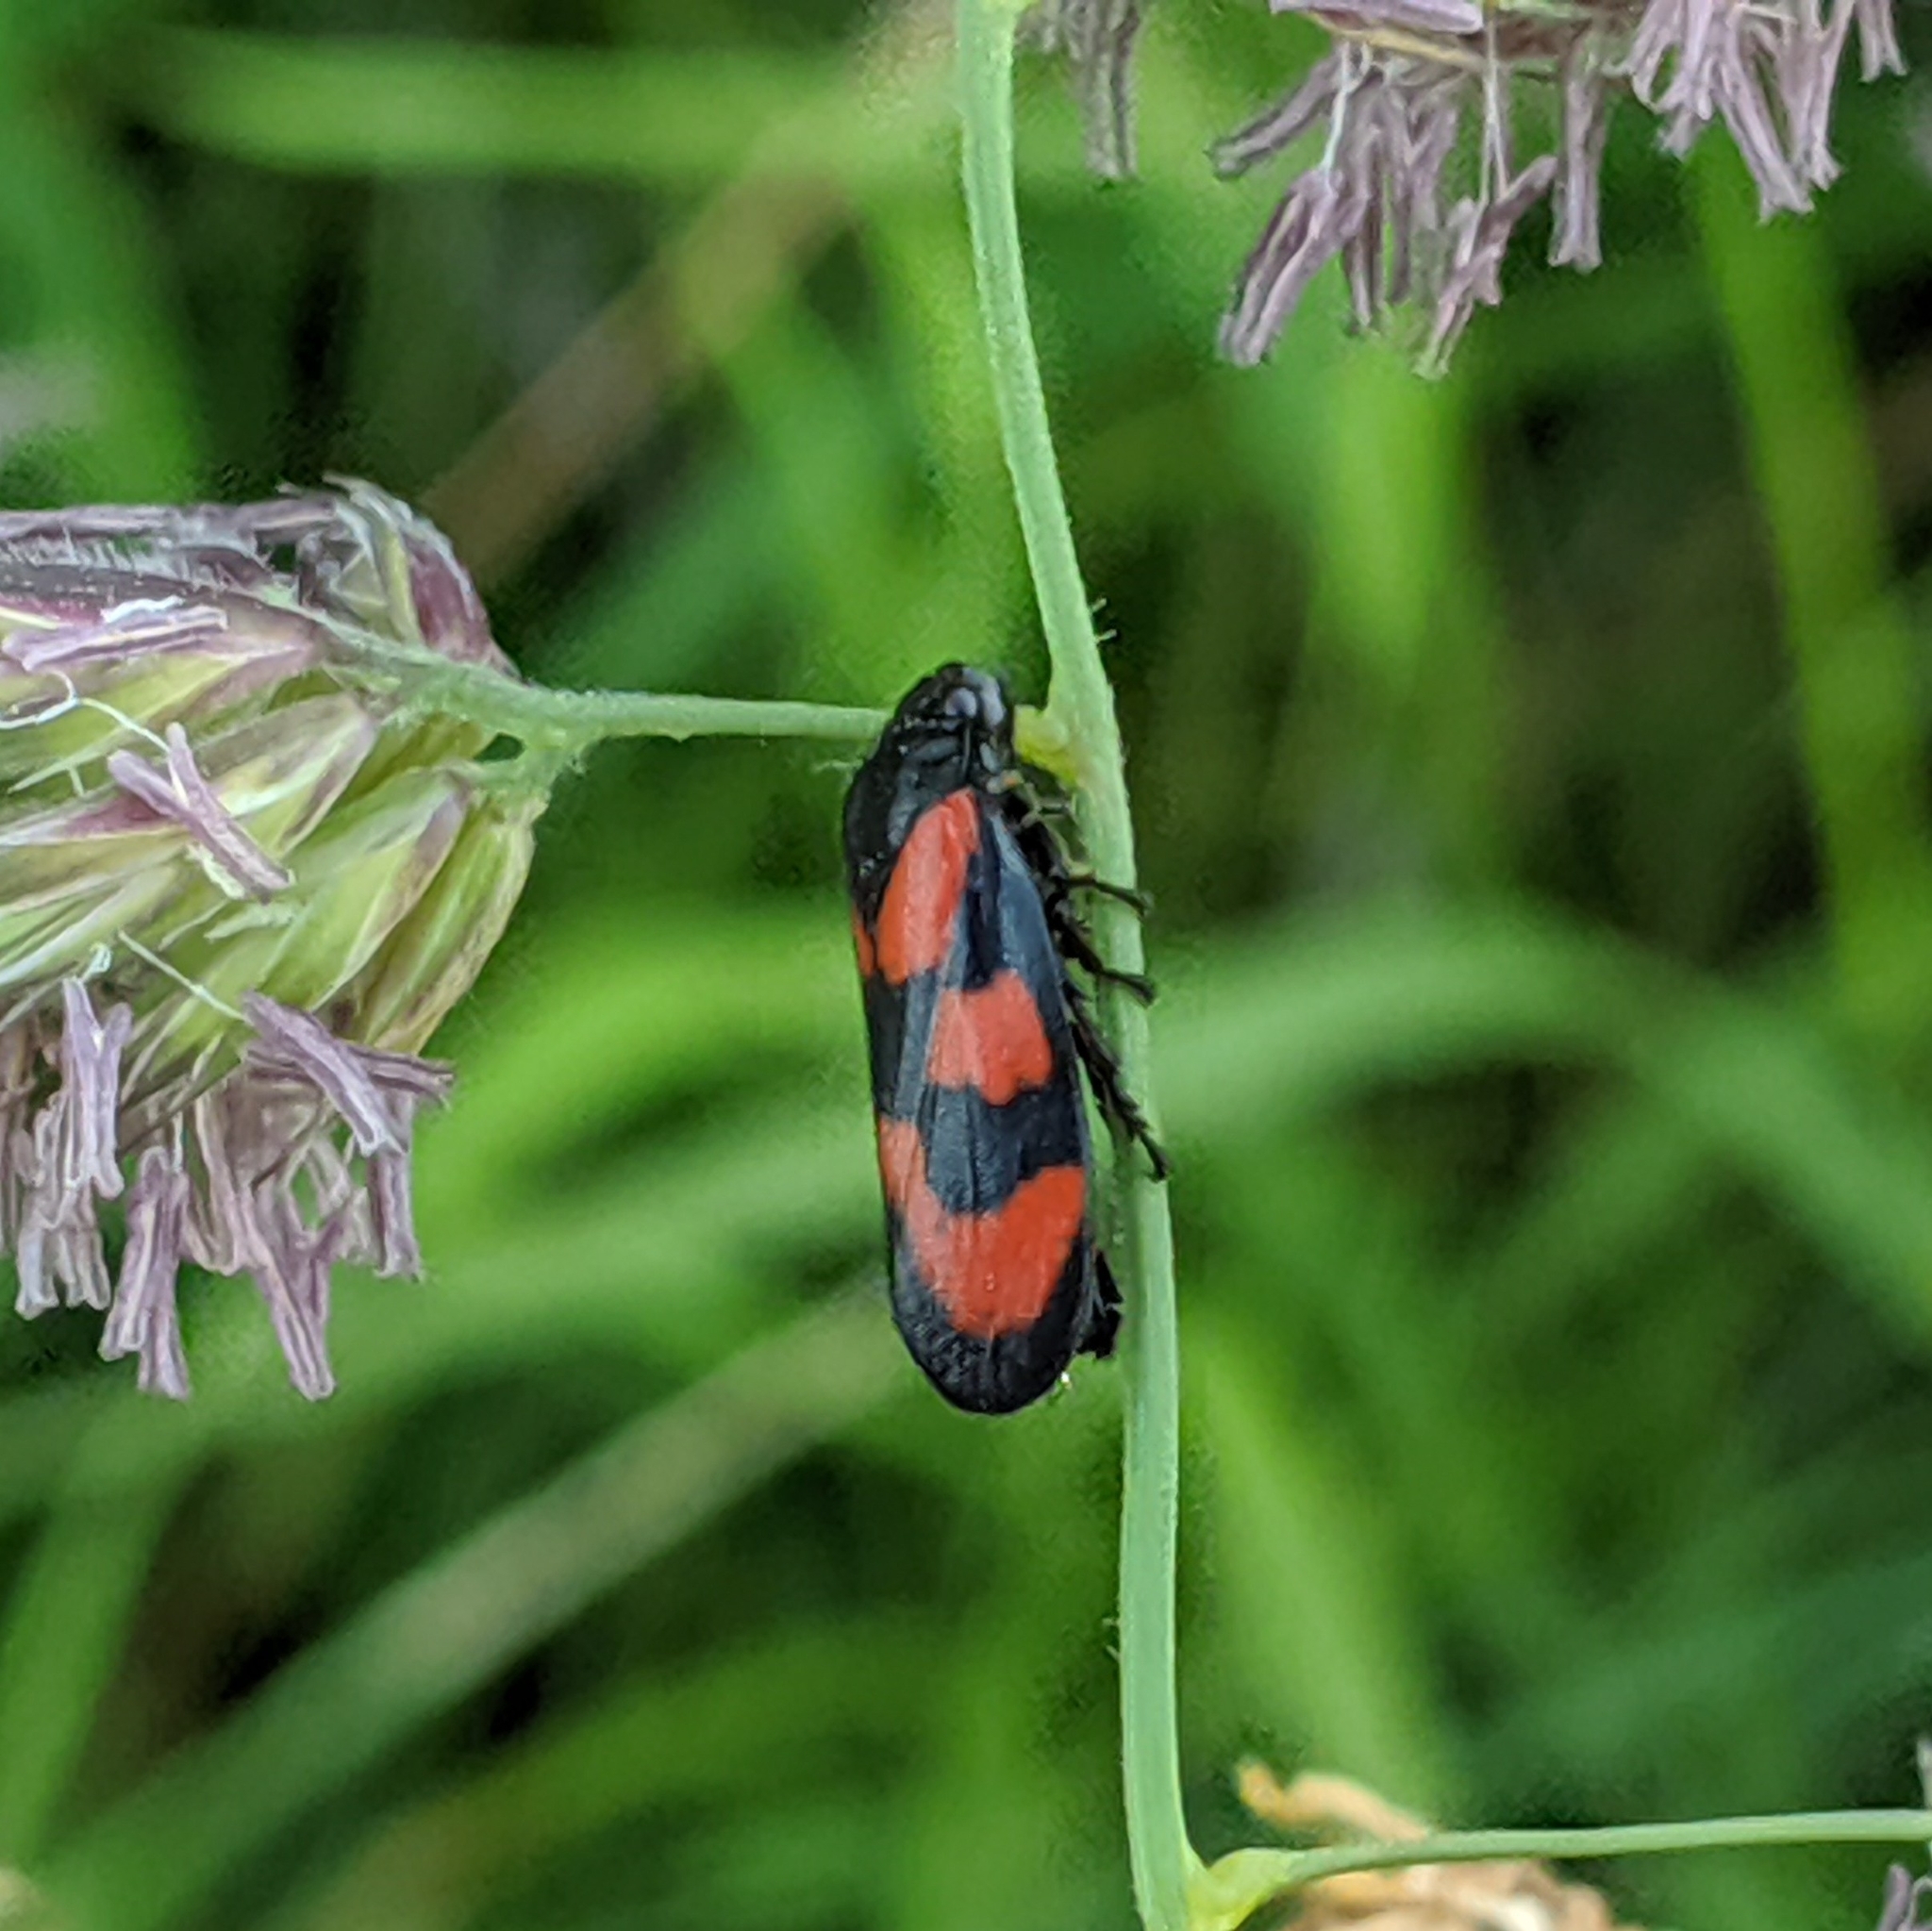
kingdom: Animalia
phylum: Arthropoda
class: Insecta
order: Hemiptera
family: Cercopidae
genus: Cercopis
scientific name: Cercopis vulnerata
